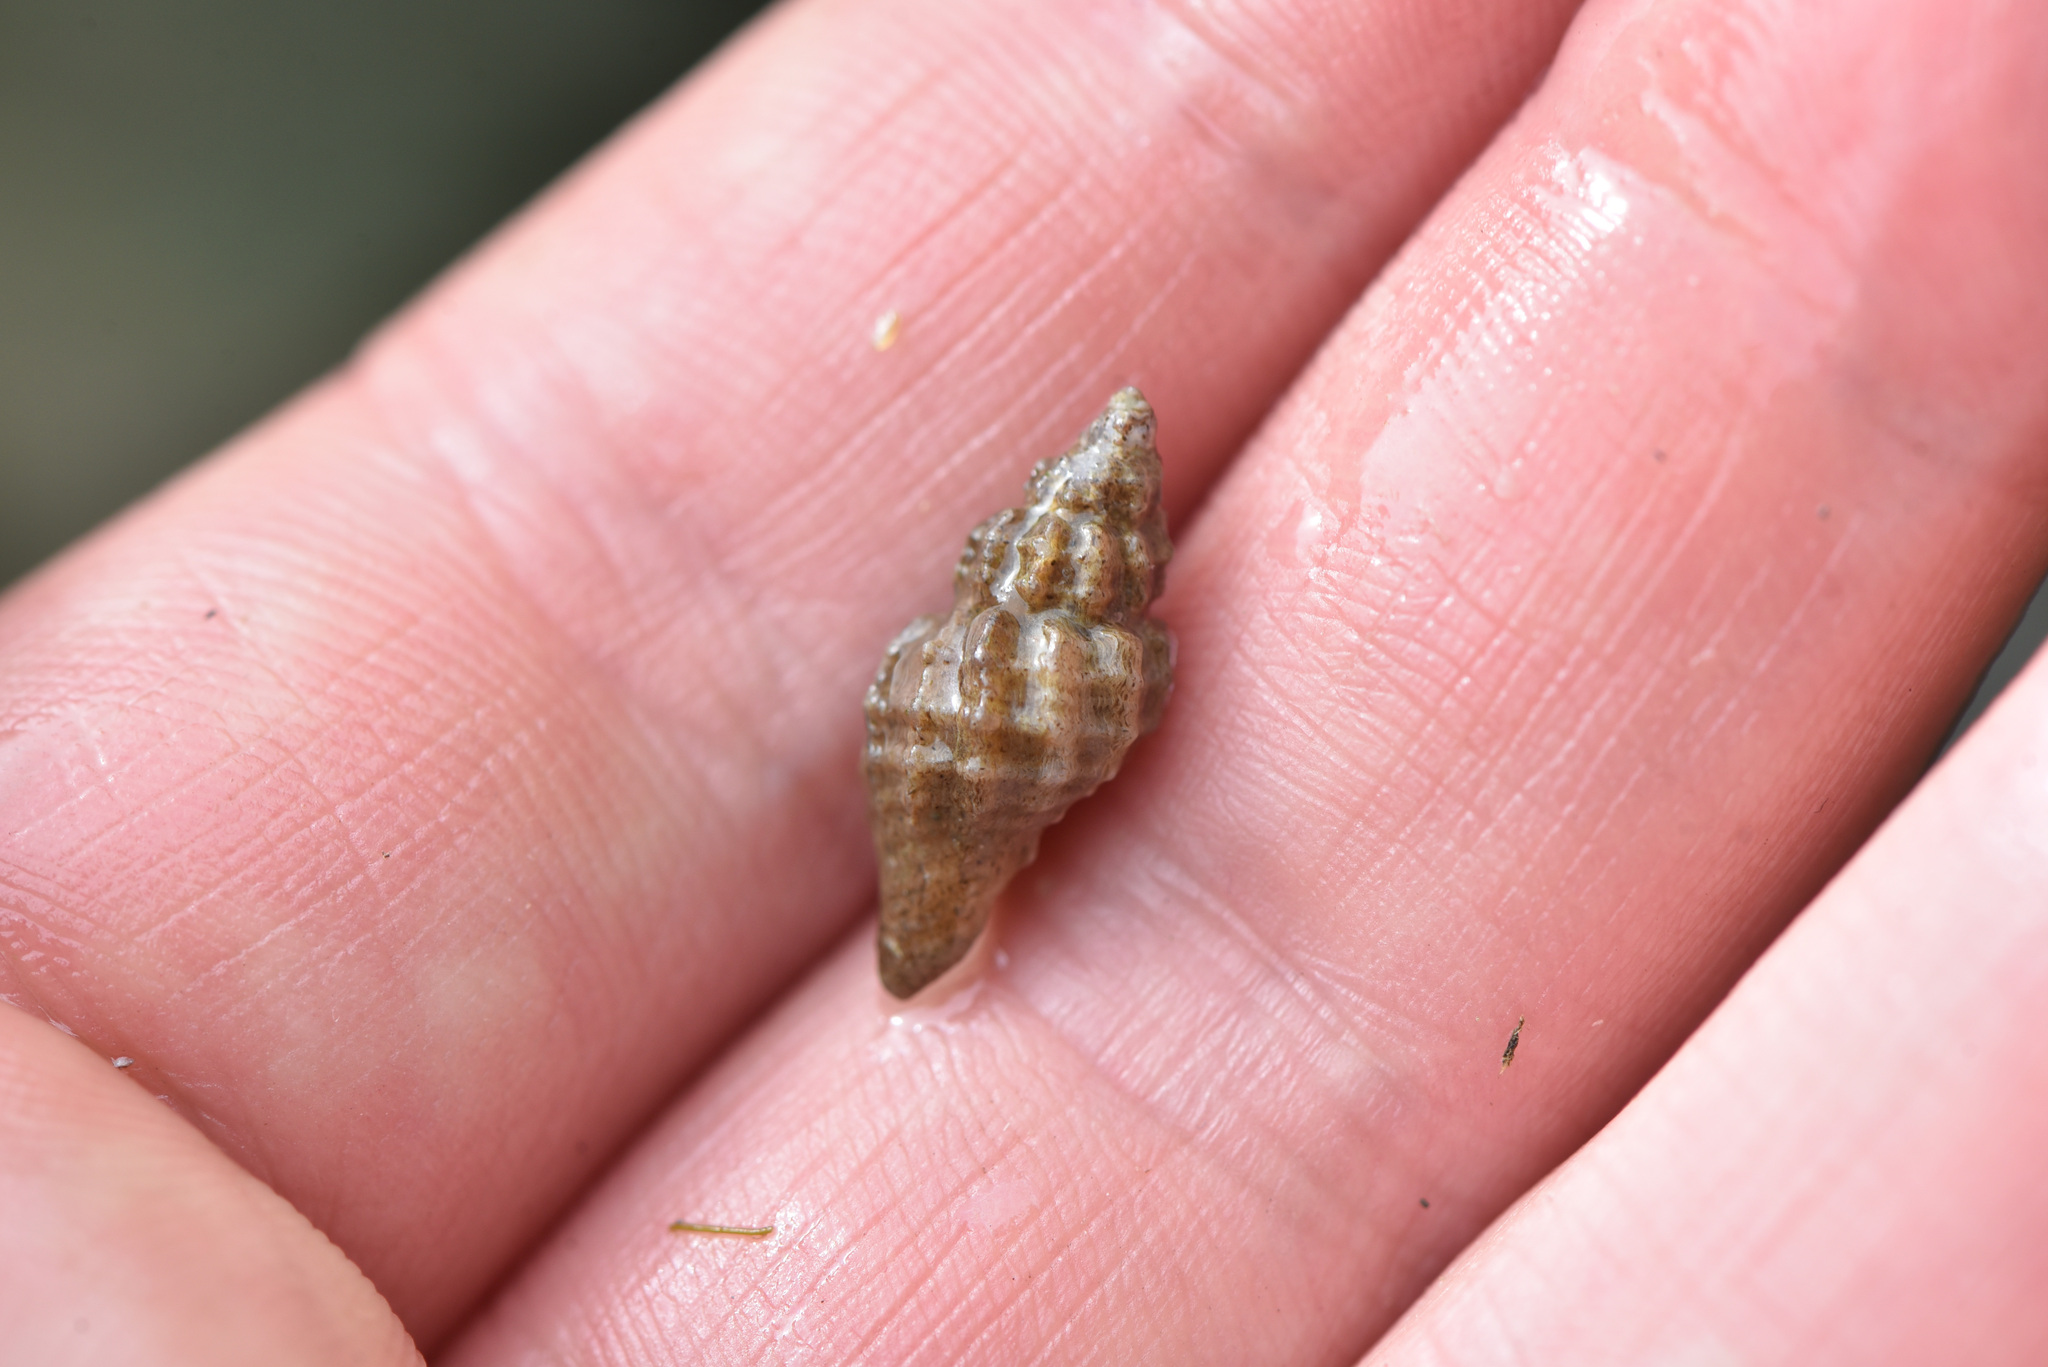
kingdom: Animalia
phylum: Mollusca
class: Gastropoda
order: Neogastropoda
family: Muricidae
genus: Paciocinebrina
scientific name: Paciocinebrina interfossa
